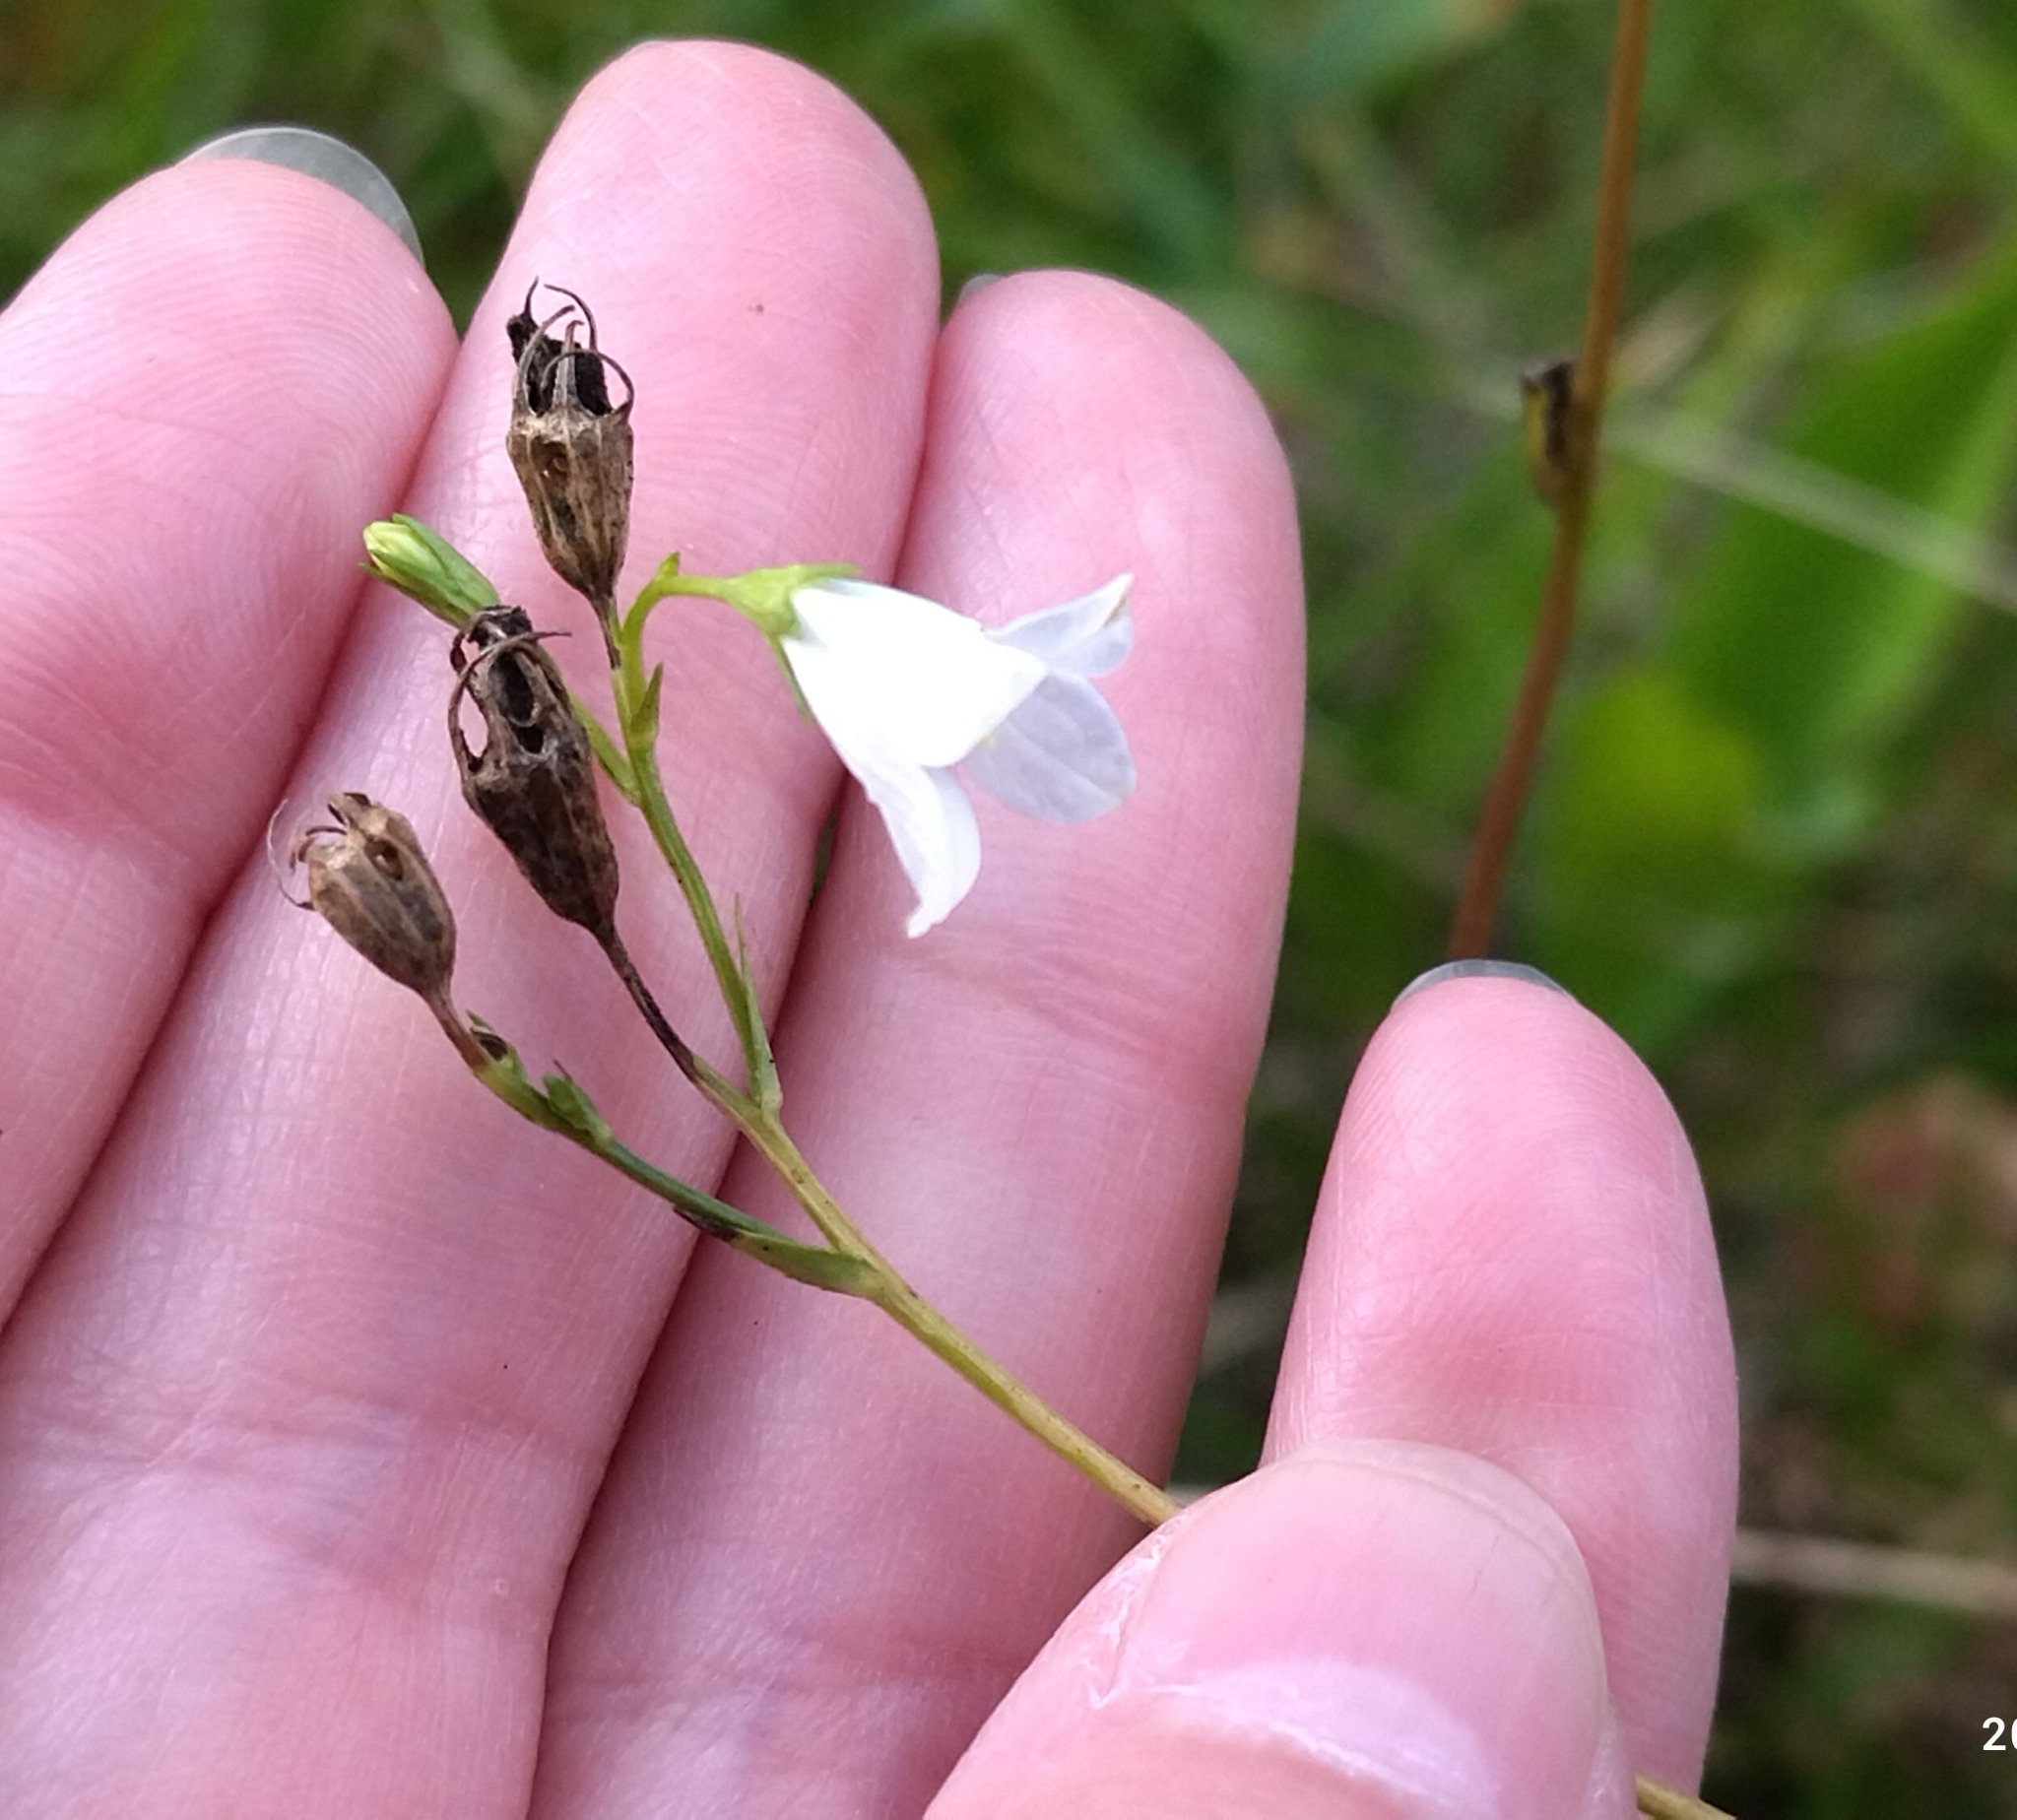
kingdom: Plantae
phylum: Tracheophyta
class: Magnoliopsida
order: Asterales
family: Campanulaceae
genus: Campanula
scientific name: Campanula patula
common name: Spreading bellflower
